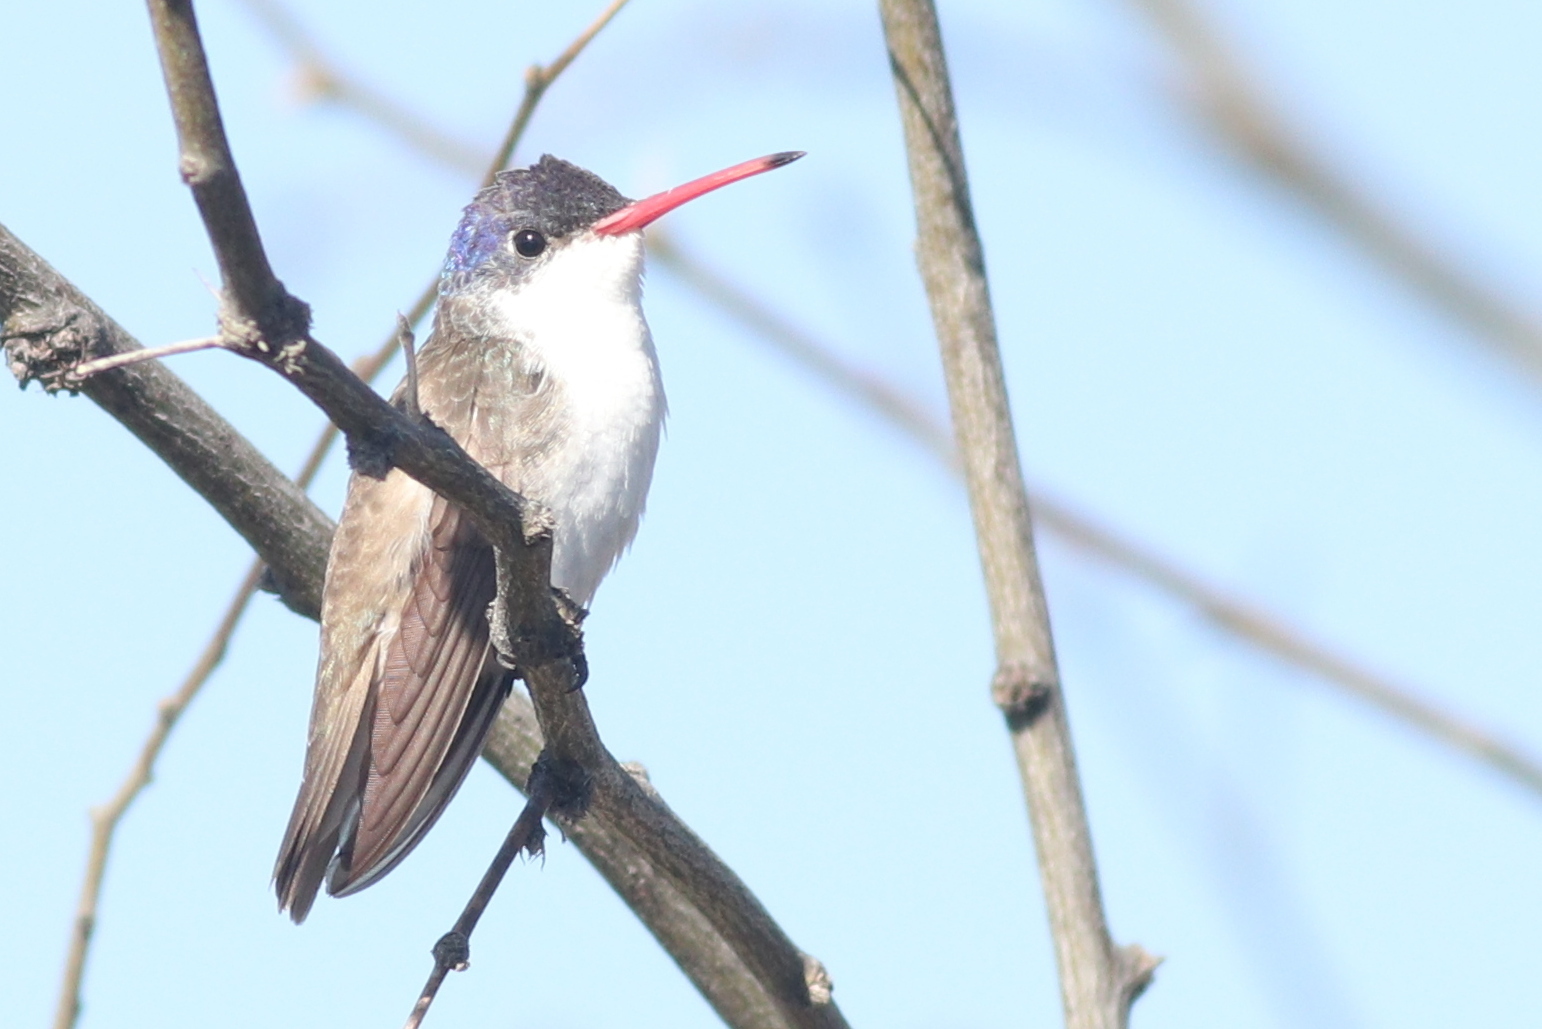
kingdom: Animalia
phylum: Chordata
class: Aves
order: Apodiformes
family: Trochilidae
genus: Leucolia
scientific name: Leucolia violiceps
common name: Violet-crowned hummingbird
